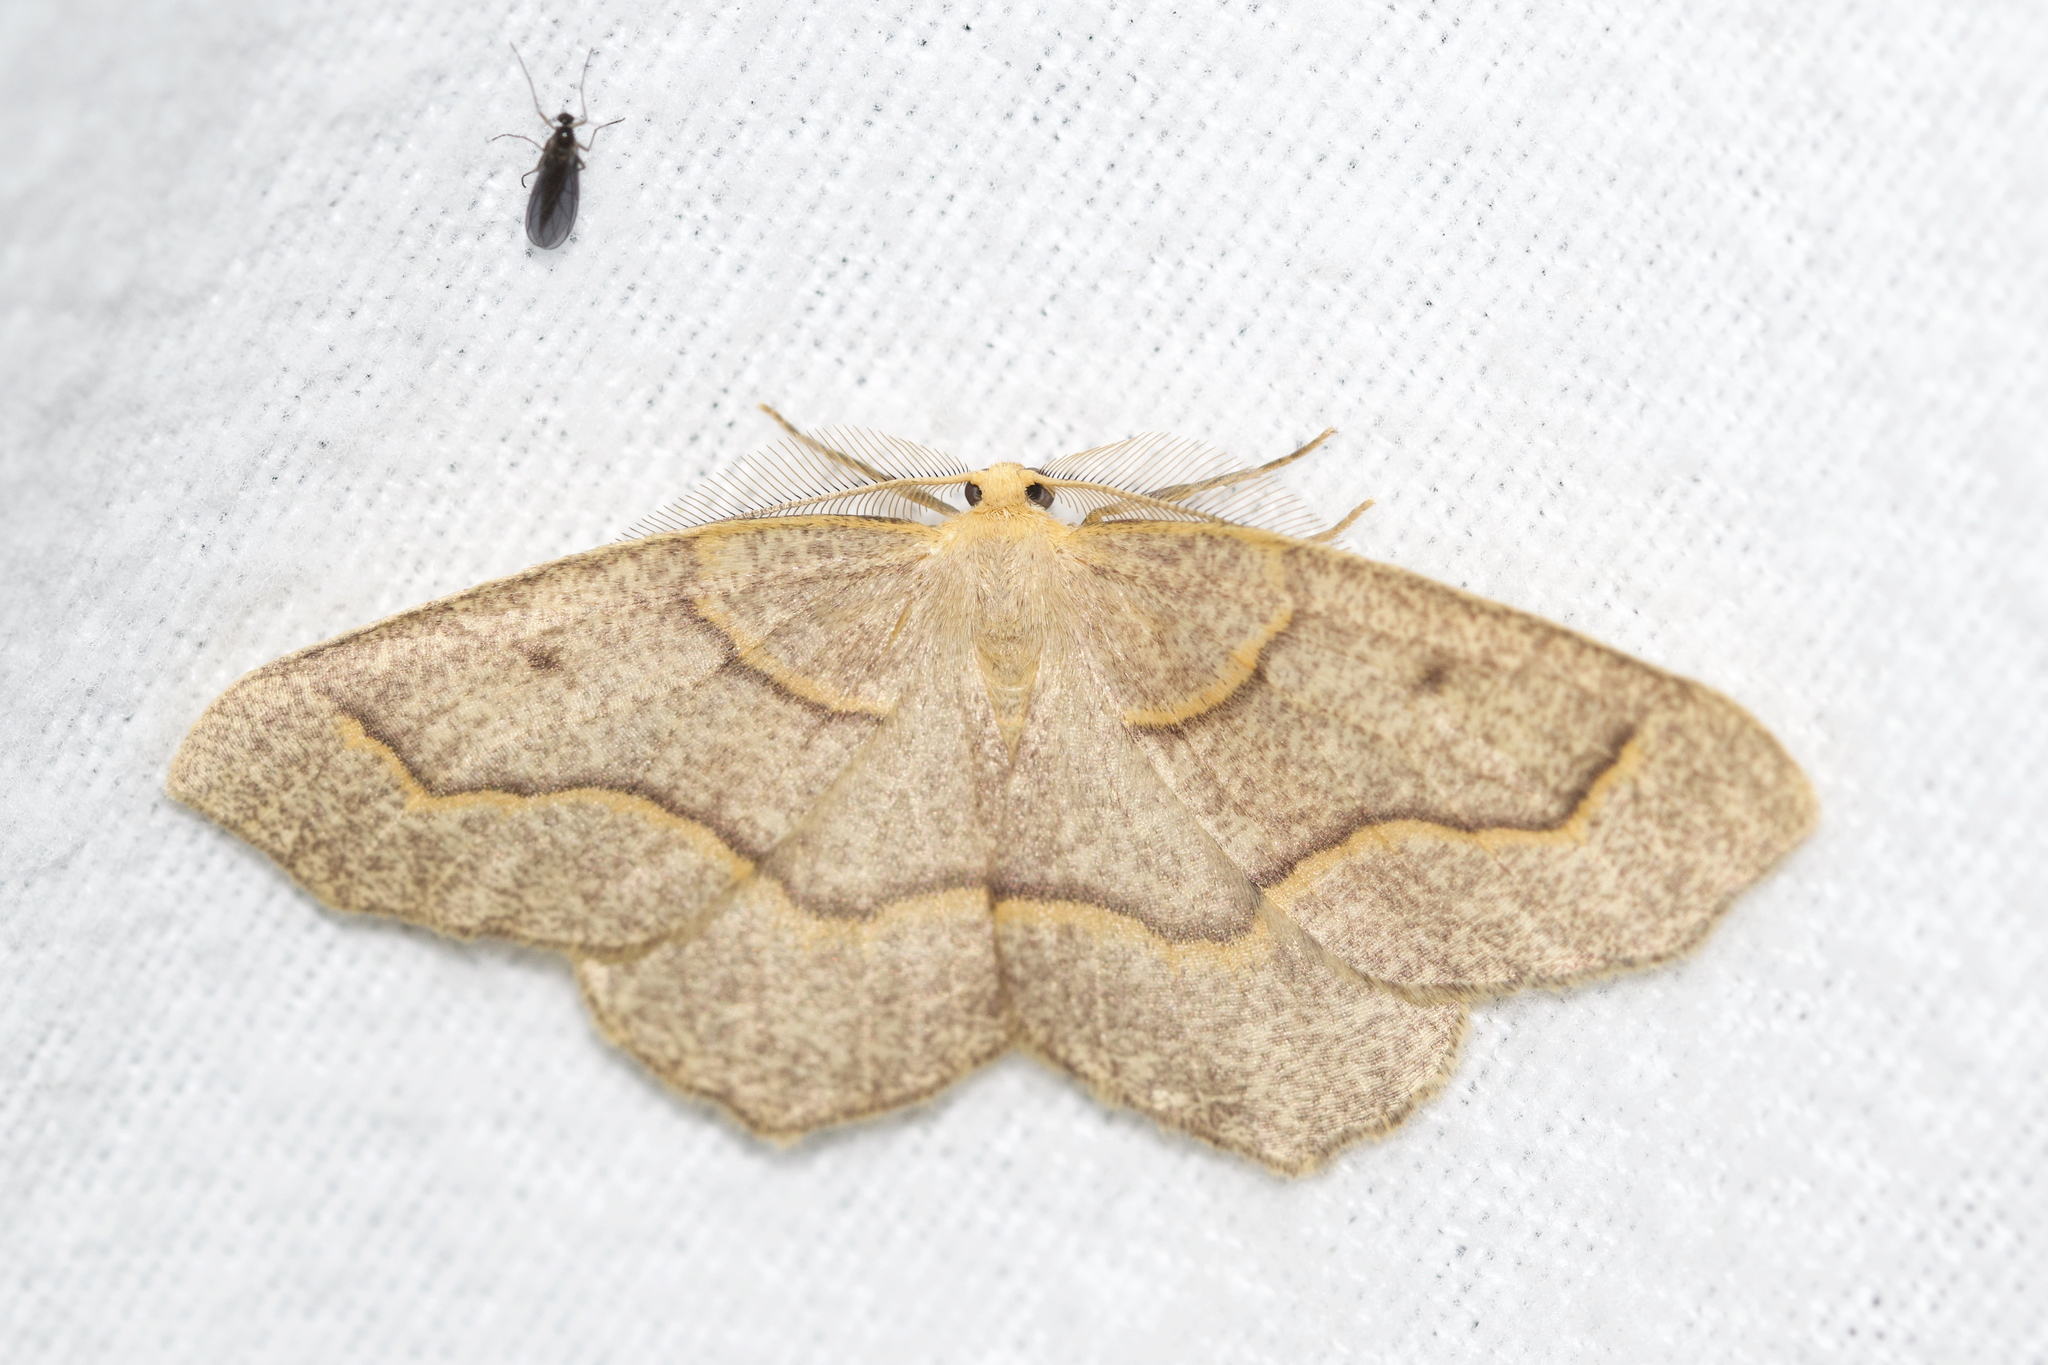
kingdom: Animalia
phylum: Arthropoda
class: Insecta
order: Lepidoptera
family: Geometridae
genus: Lambdina
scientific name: Lambdina fiscellaria
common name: Hemlock looper
